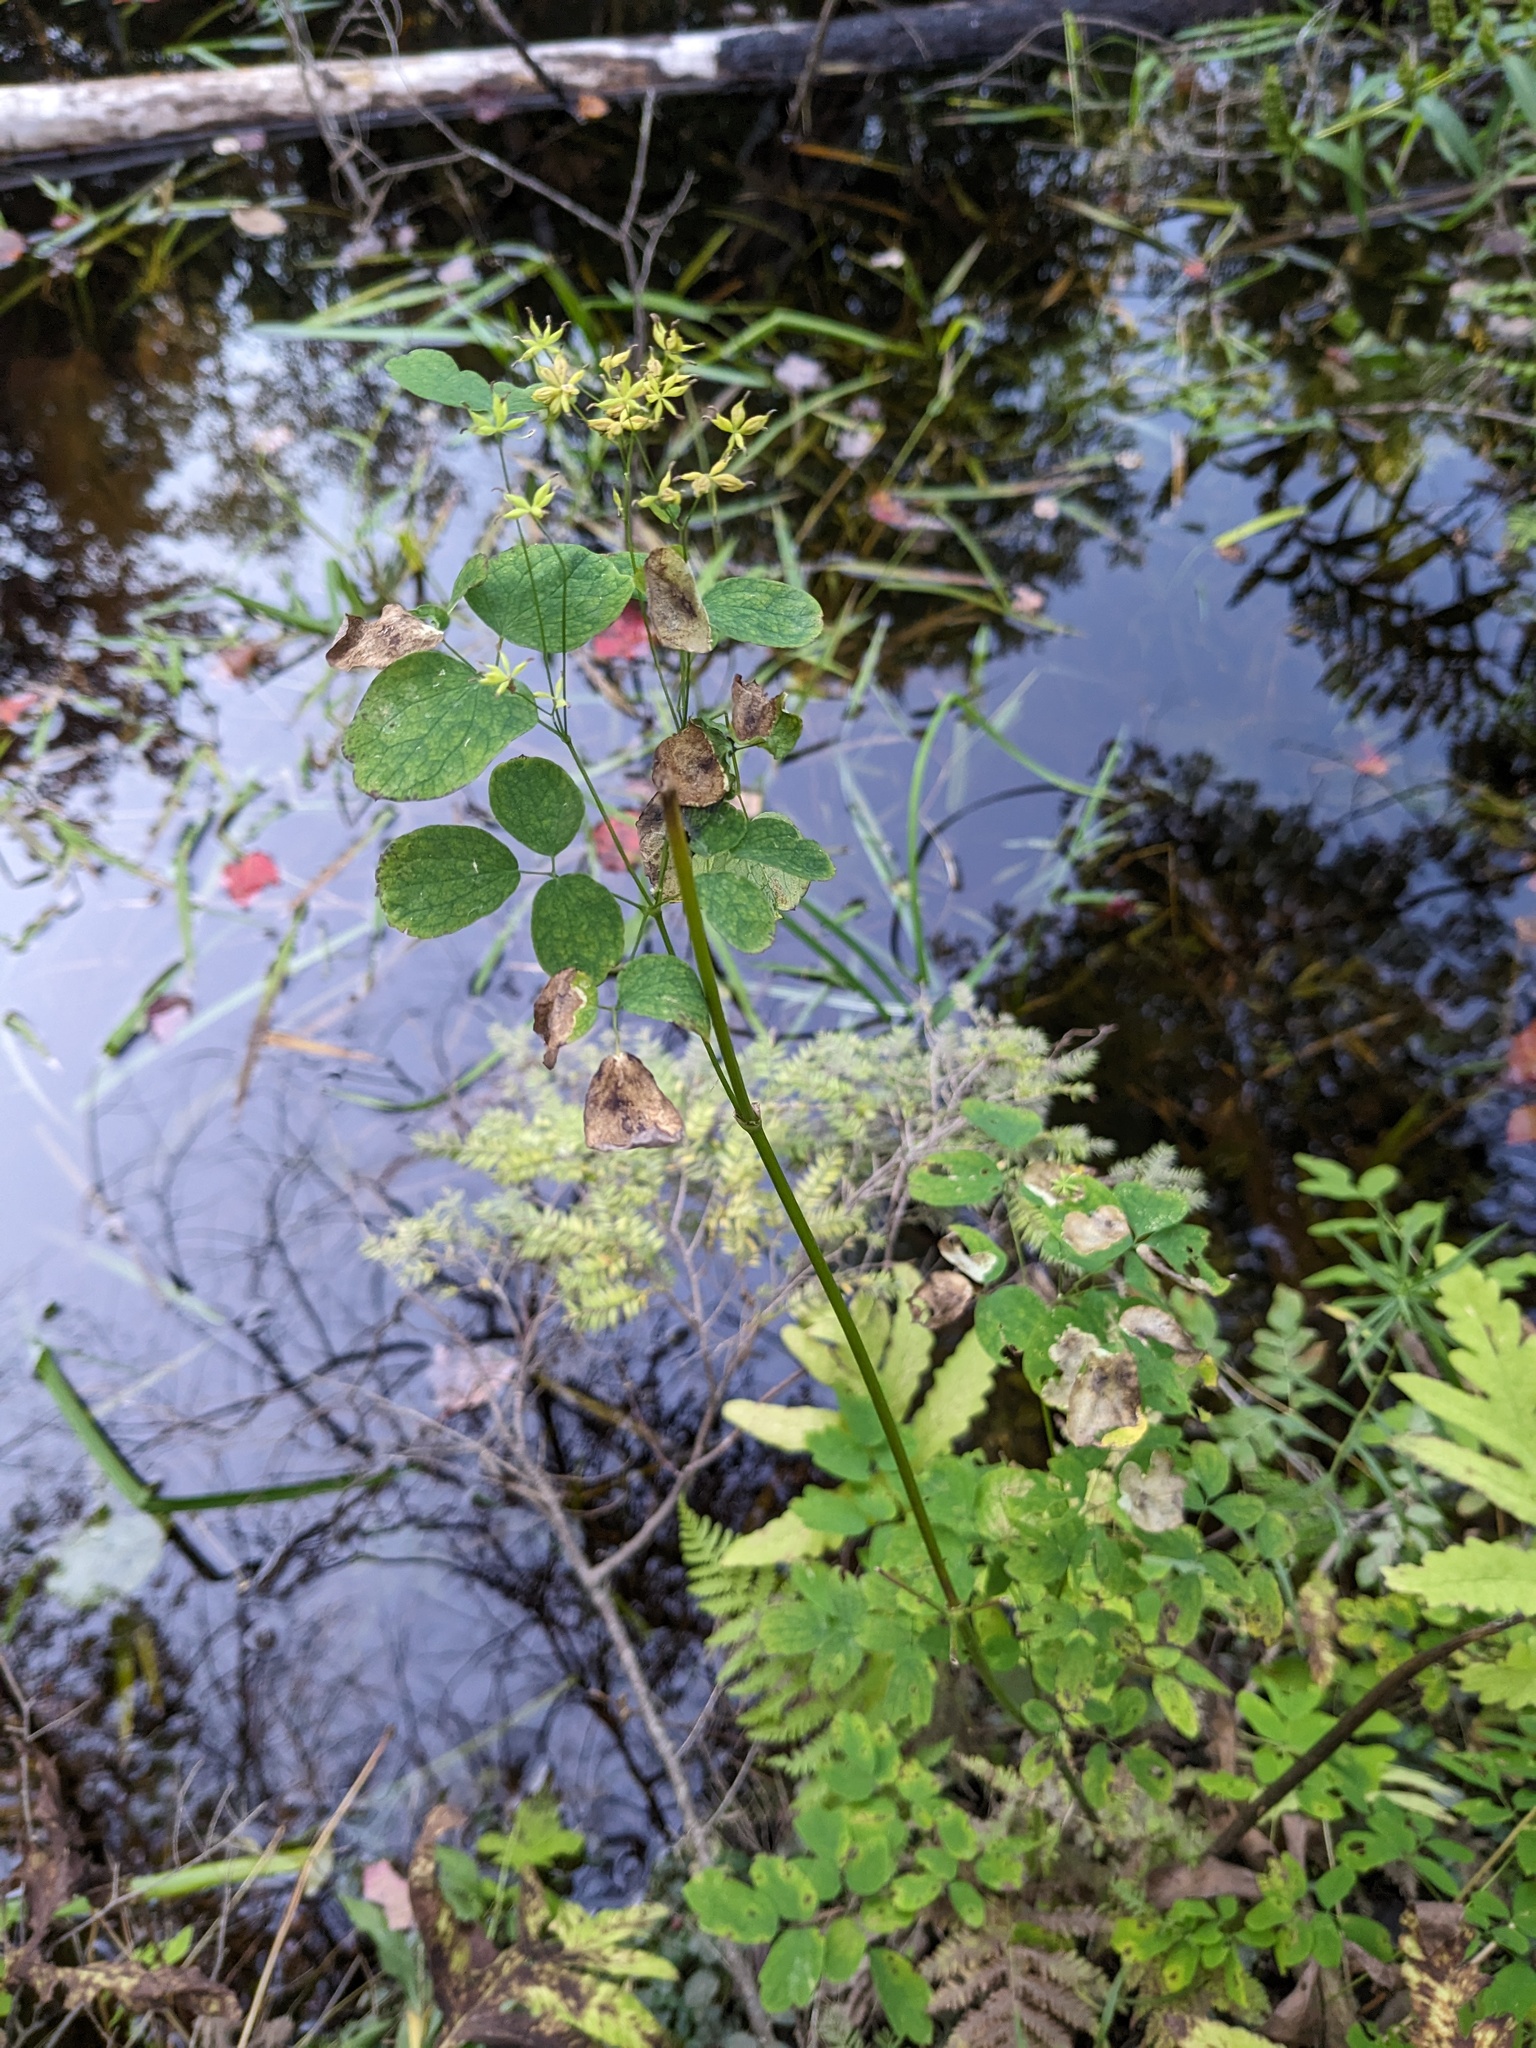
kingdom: Plantae
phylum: Tracheophyta
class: Magnoliopsida
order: Ranunculales
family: Ranunculaceae
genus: Thalictrum
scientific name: Thalictrum pubescens
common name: King-of-the-meadow
